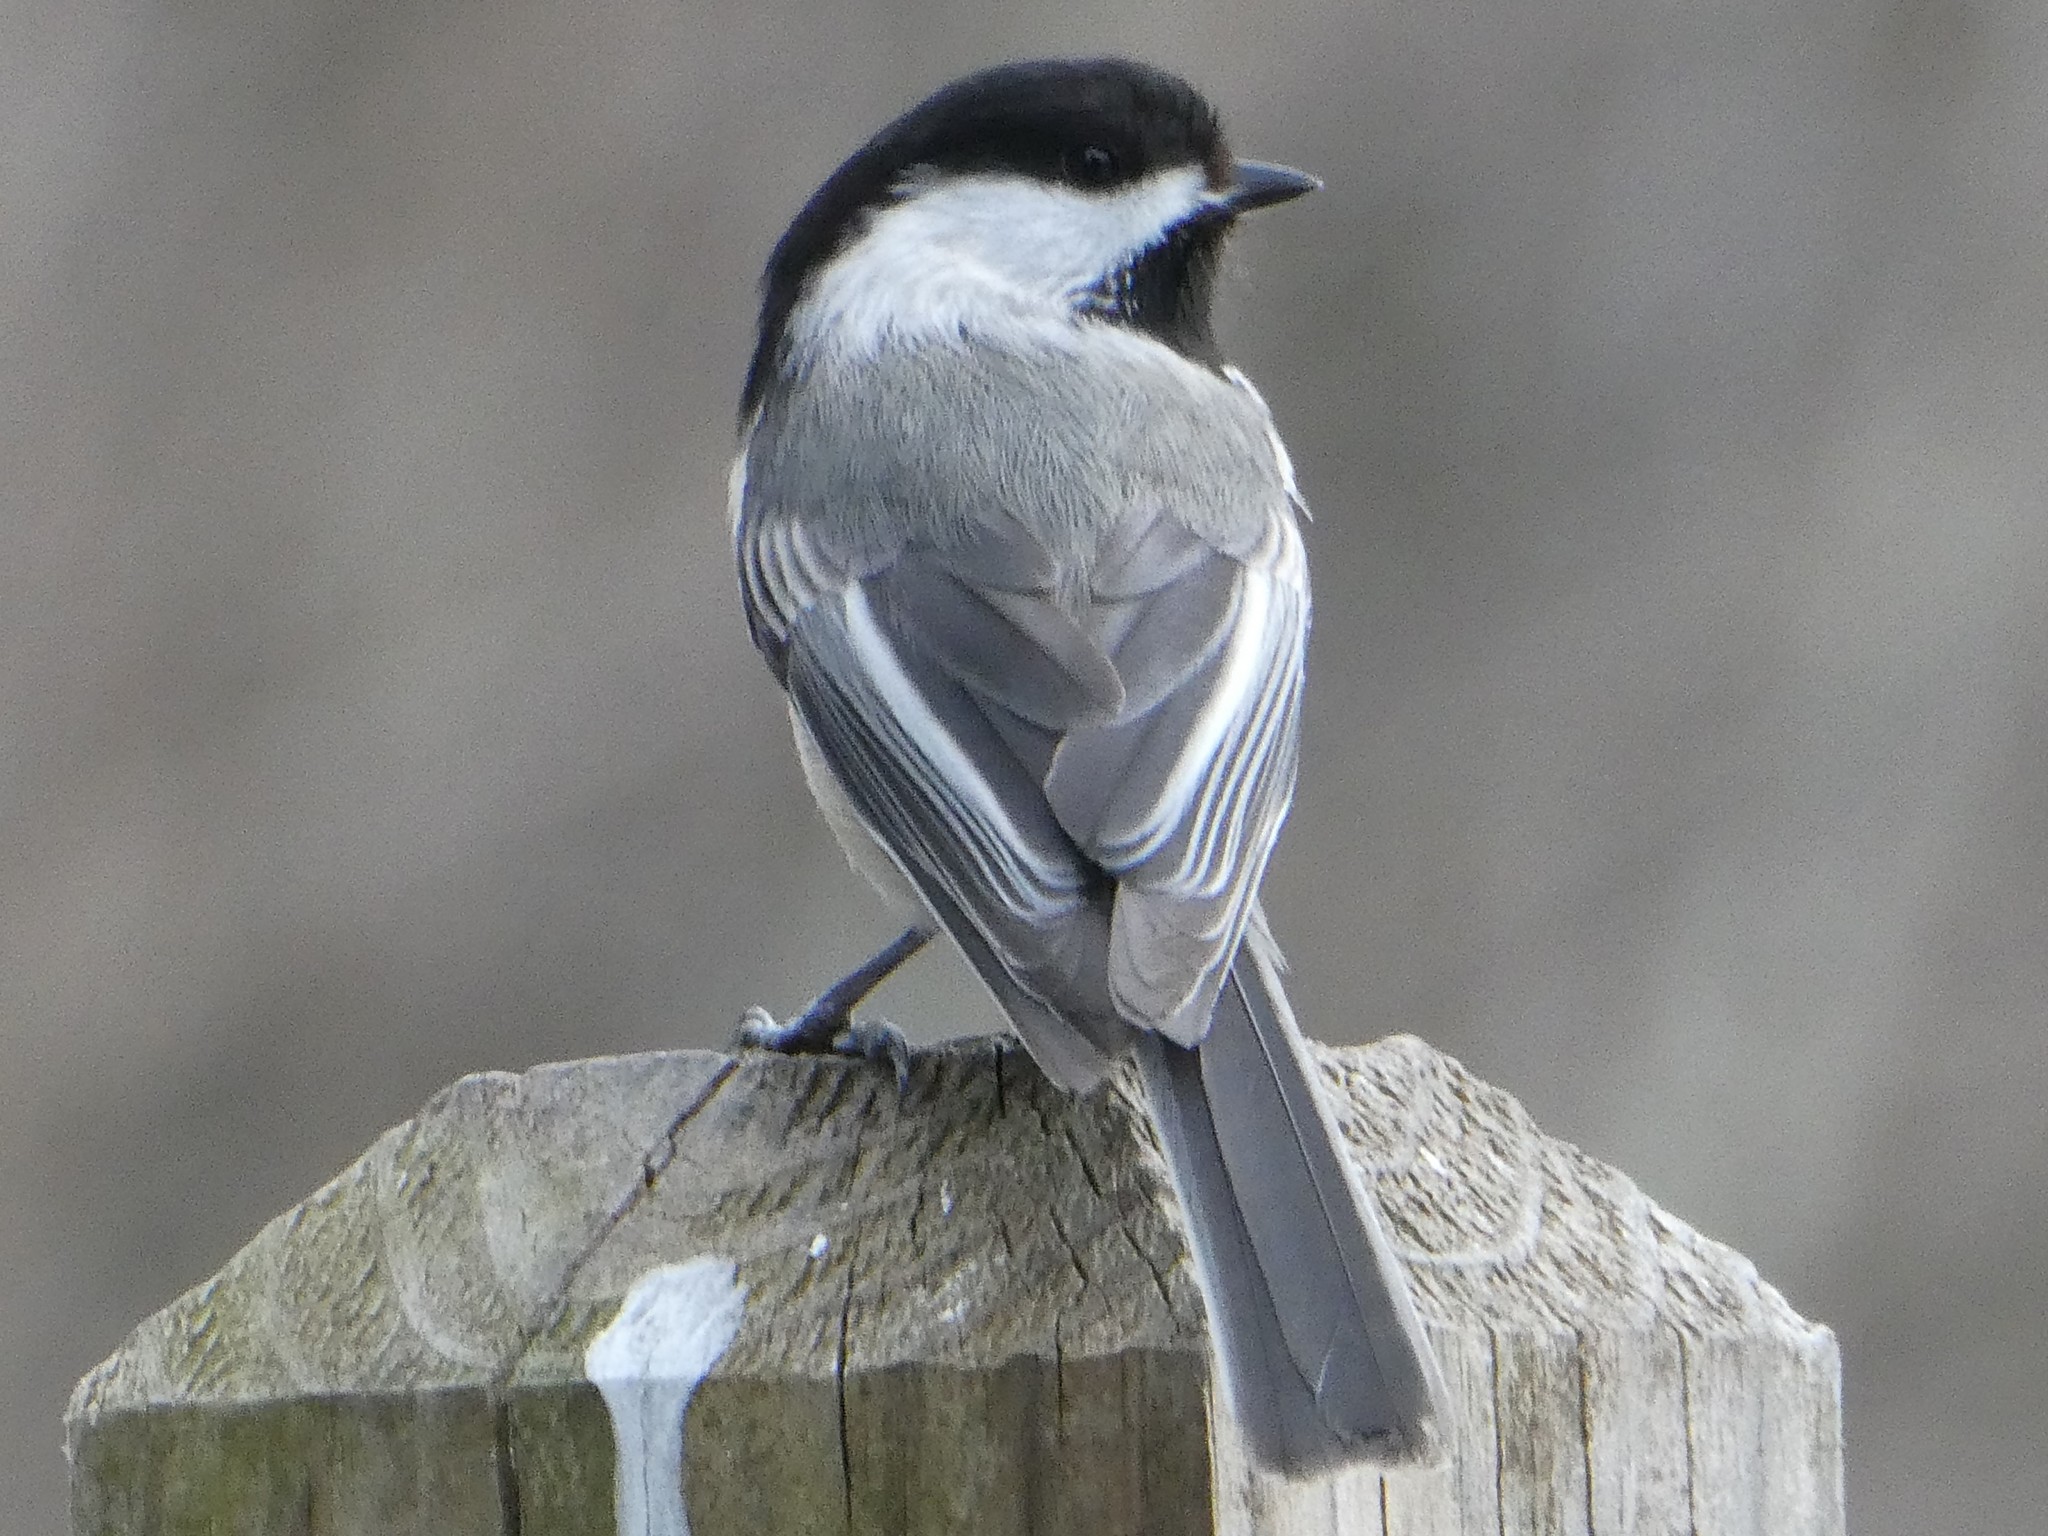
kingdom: Animalia
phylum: Chordata
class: Aves
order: Passeriformes
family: Paridae
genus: Poecile
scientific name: Poecile atricapillus
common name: Black-capped chickadee
